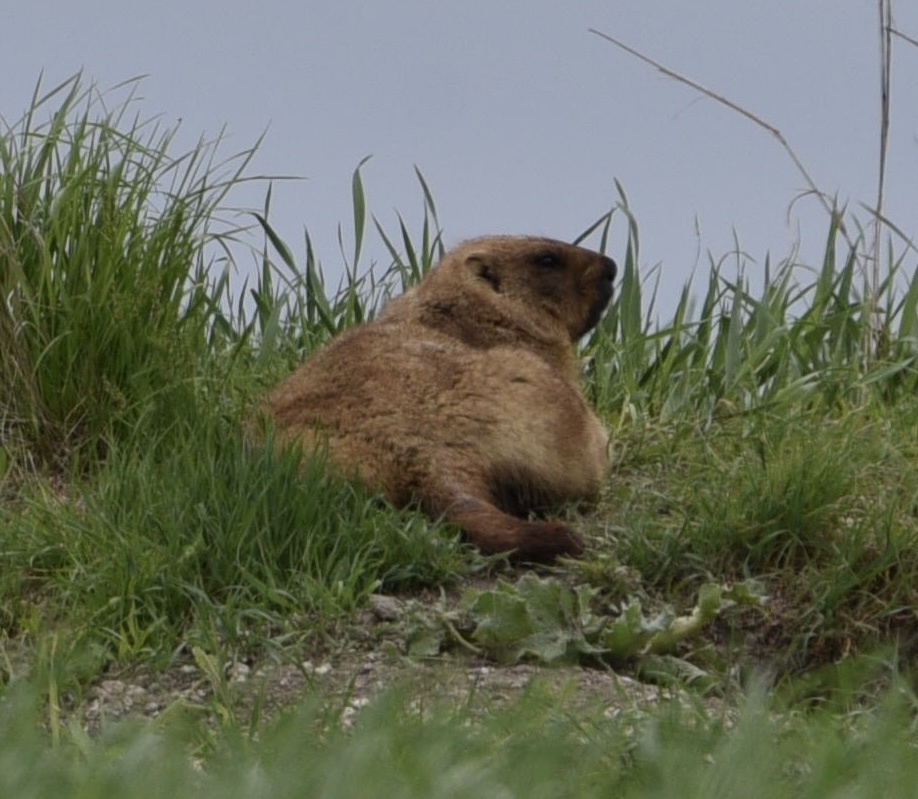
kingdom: Animalia
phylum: Chordata
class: Mammalia
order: Rodentia
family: Sciuridae
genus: Marmota
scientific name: Marmota bobak
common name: Bobak marmot
